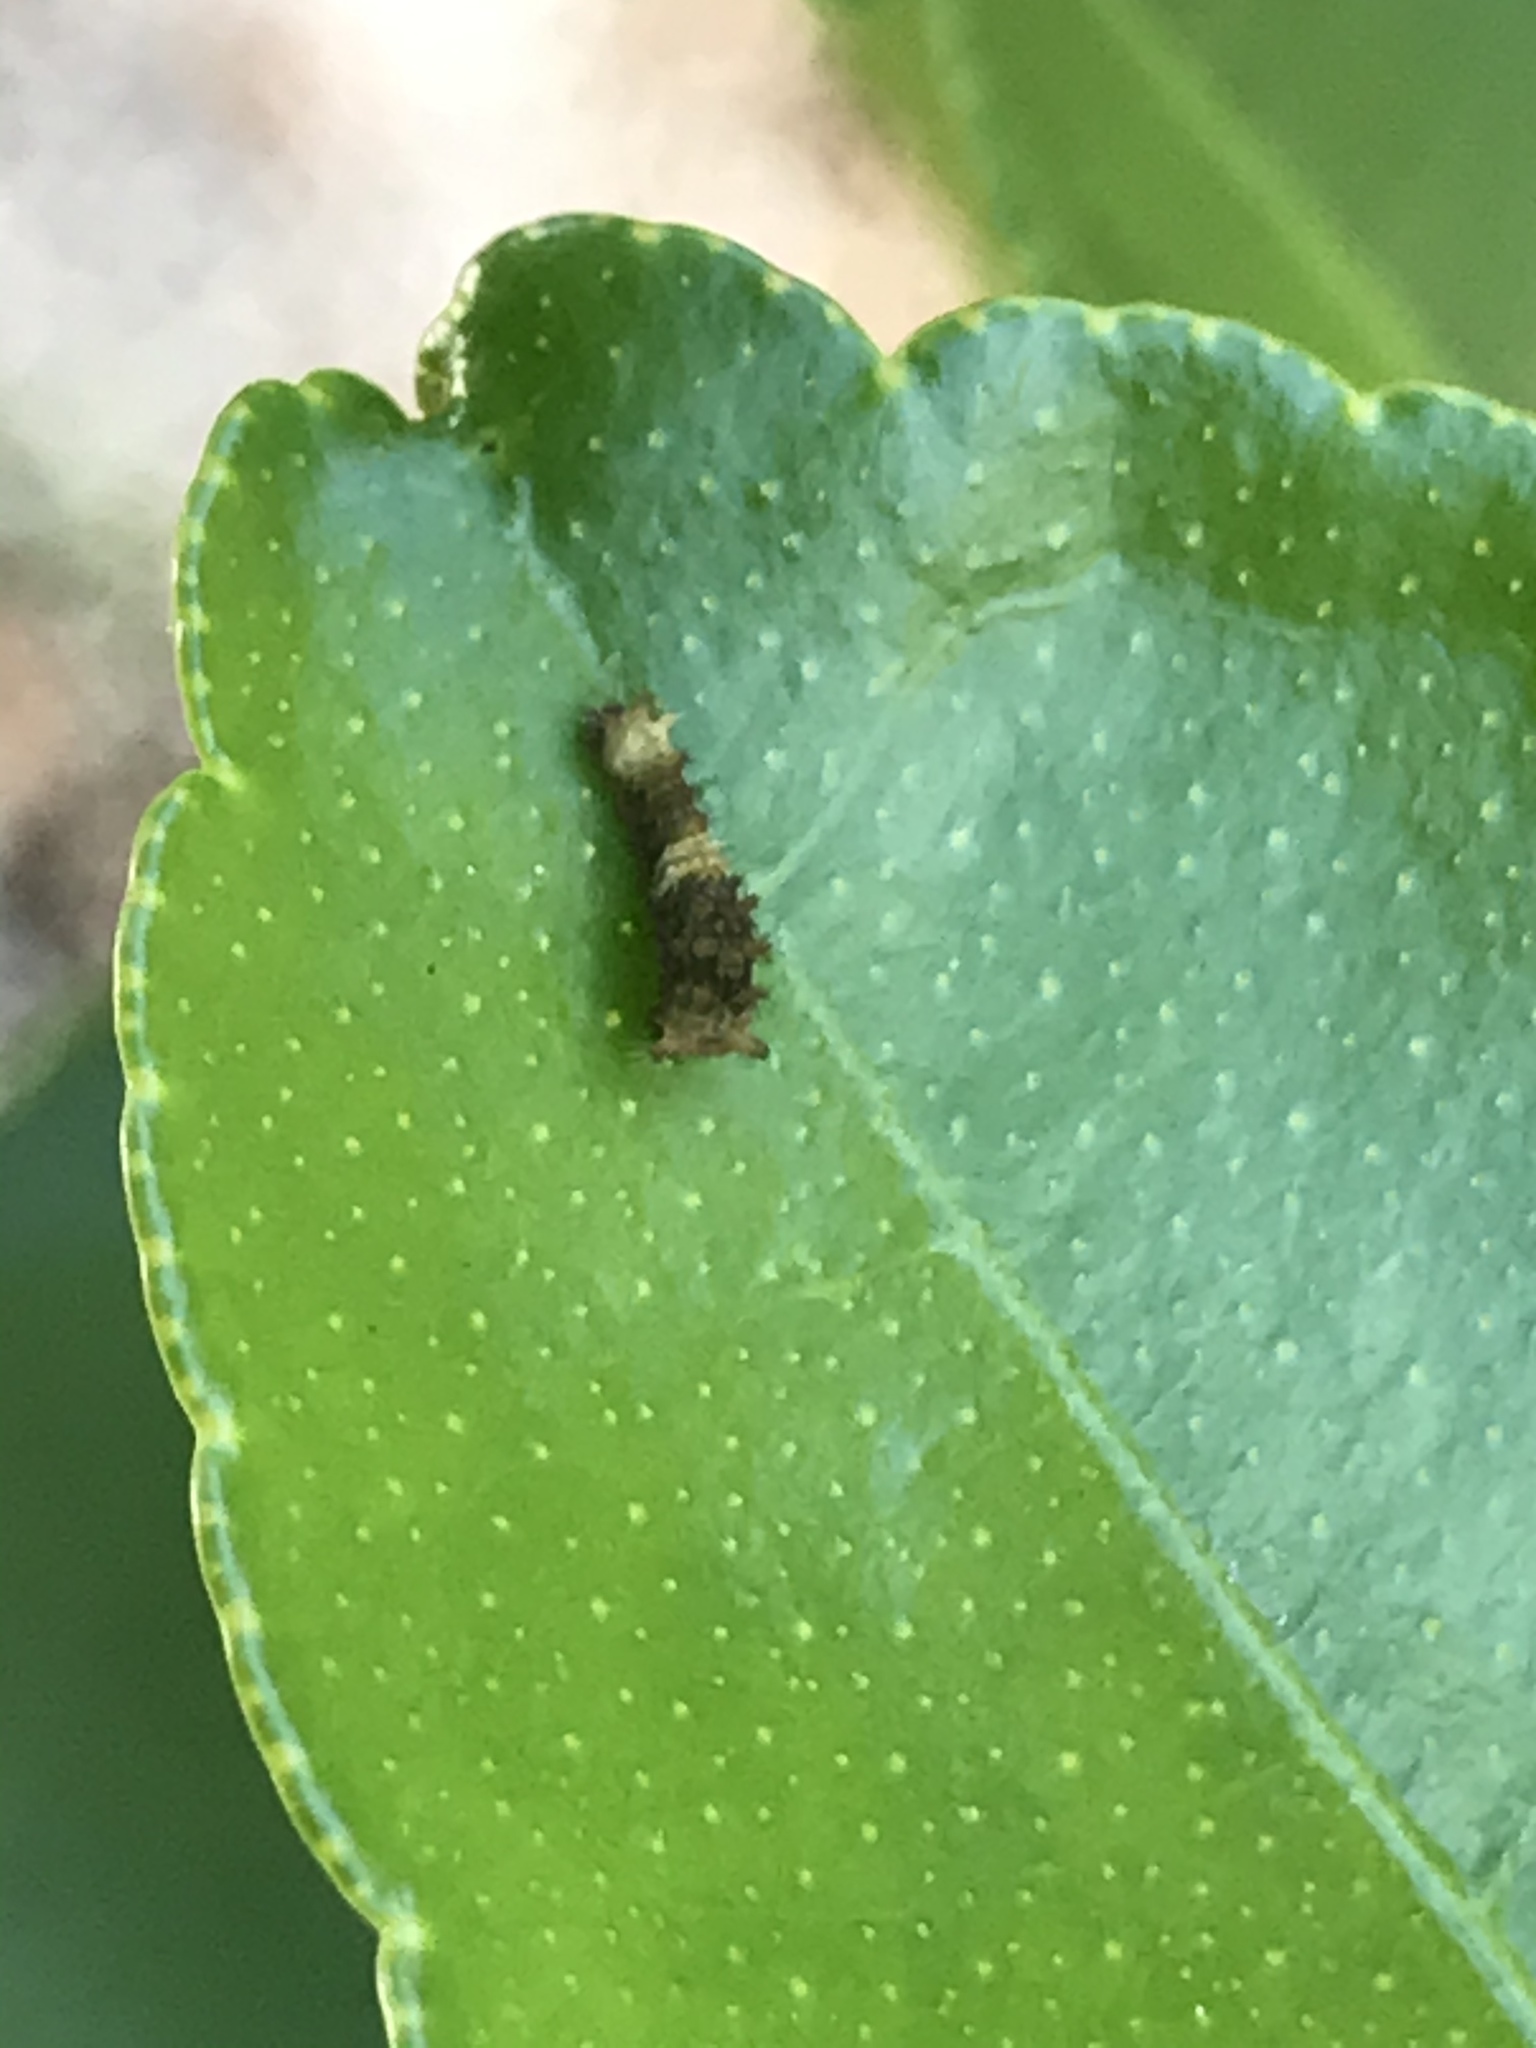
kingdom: Animalia
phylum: Arthropoda
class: Insecta
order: Lepidoptera
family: Papilionidae
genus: Papilio
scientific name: Papilio cresphontes
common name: Giant swallowtail
